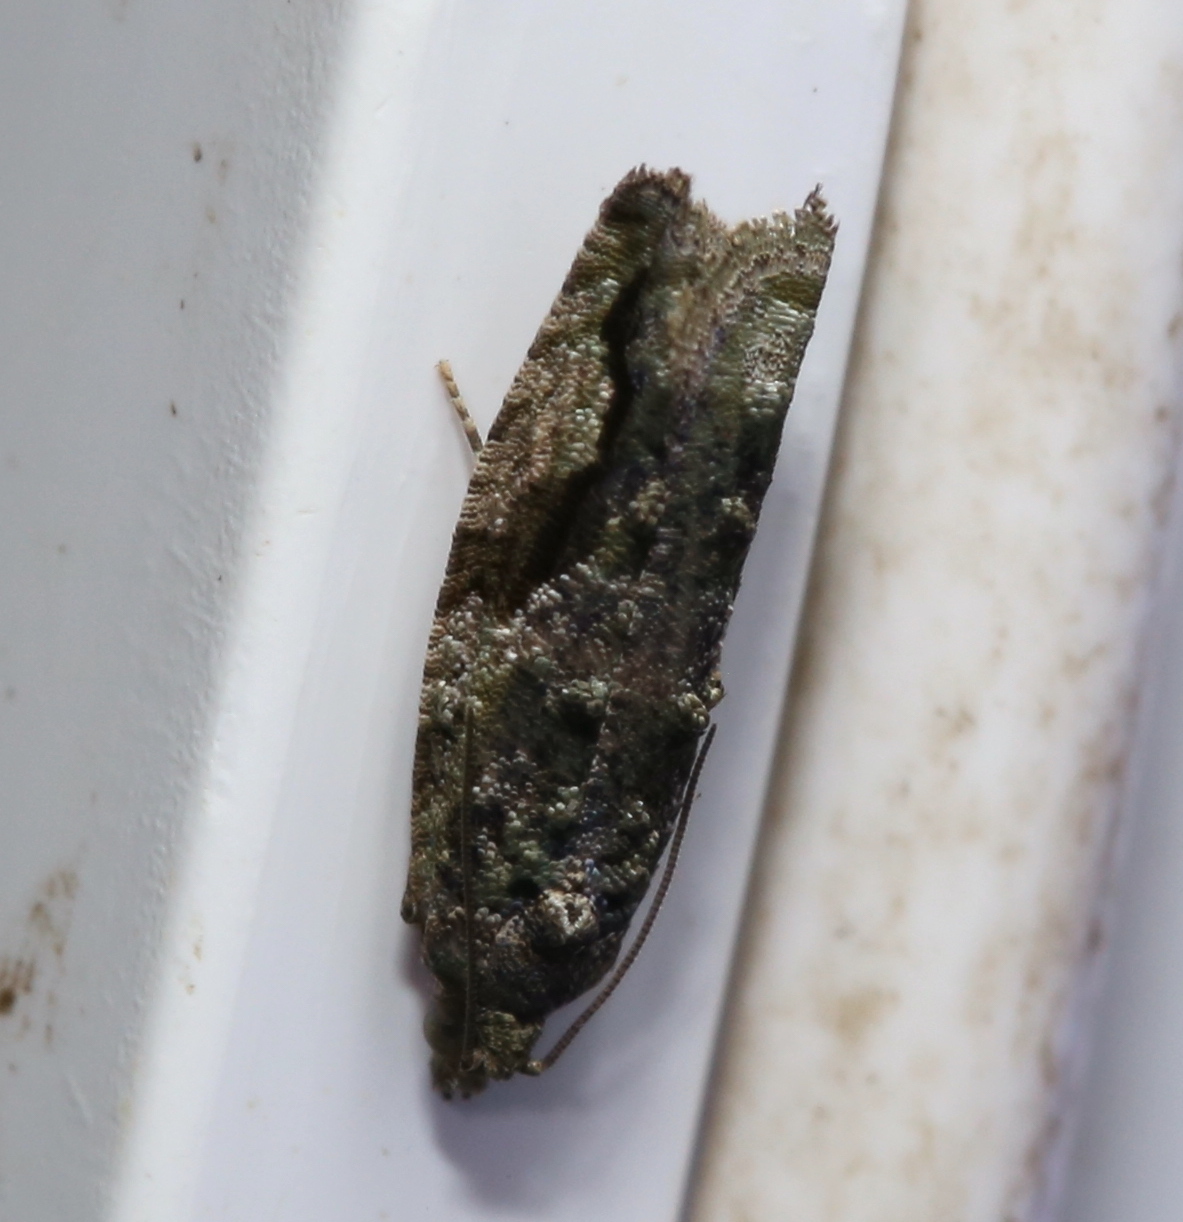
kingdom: Animalia
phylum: Arthropoda
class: Insecta
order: Lepidoptera
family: Tortricidae
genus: Proteoteras
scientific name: Proteoteras aesculana
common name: Maple twig borer moth
